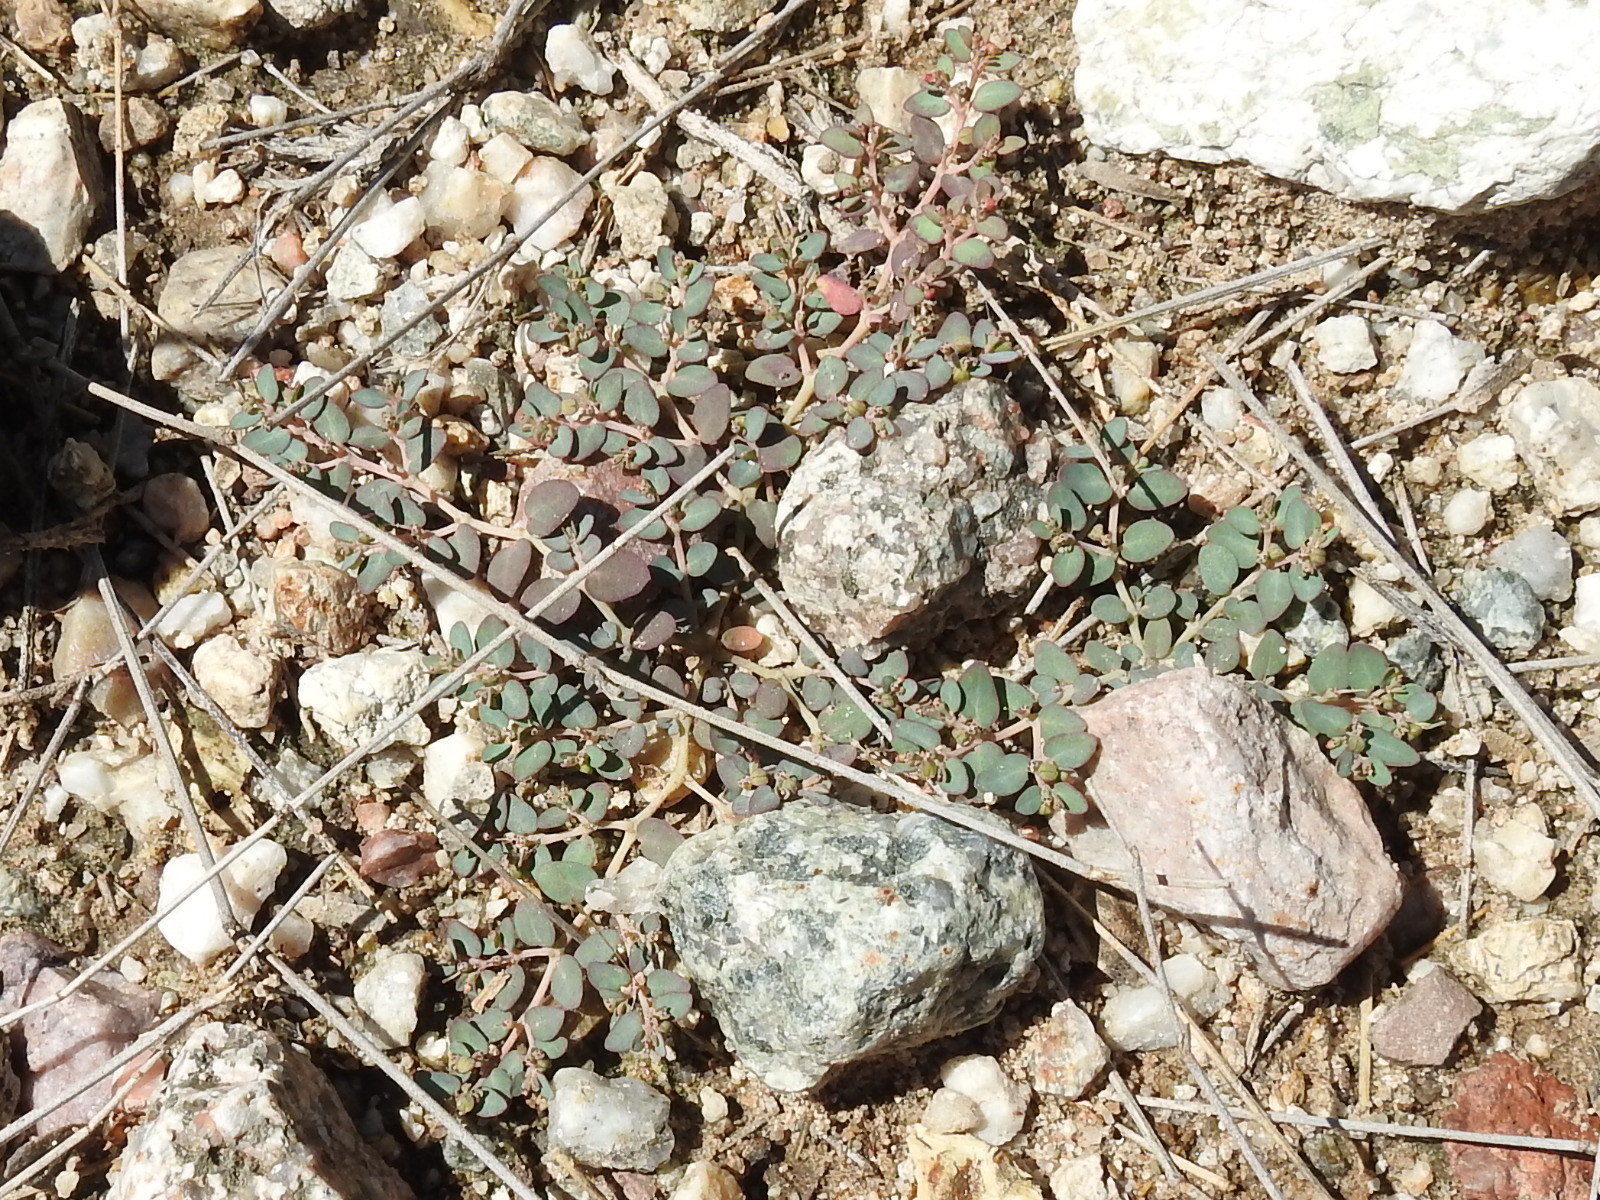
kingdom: Plantae
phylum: Tracheophyta
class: Magnoliopsida
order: Malpighiales
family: Euphorbiaceae
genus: Euphorbia
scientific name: Euphorbia micromera
